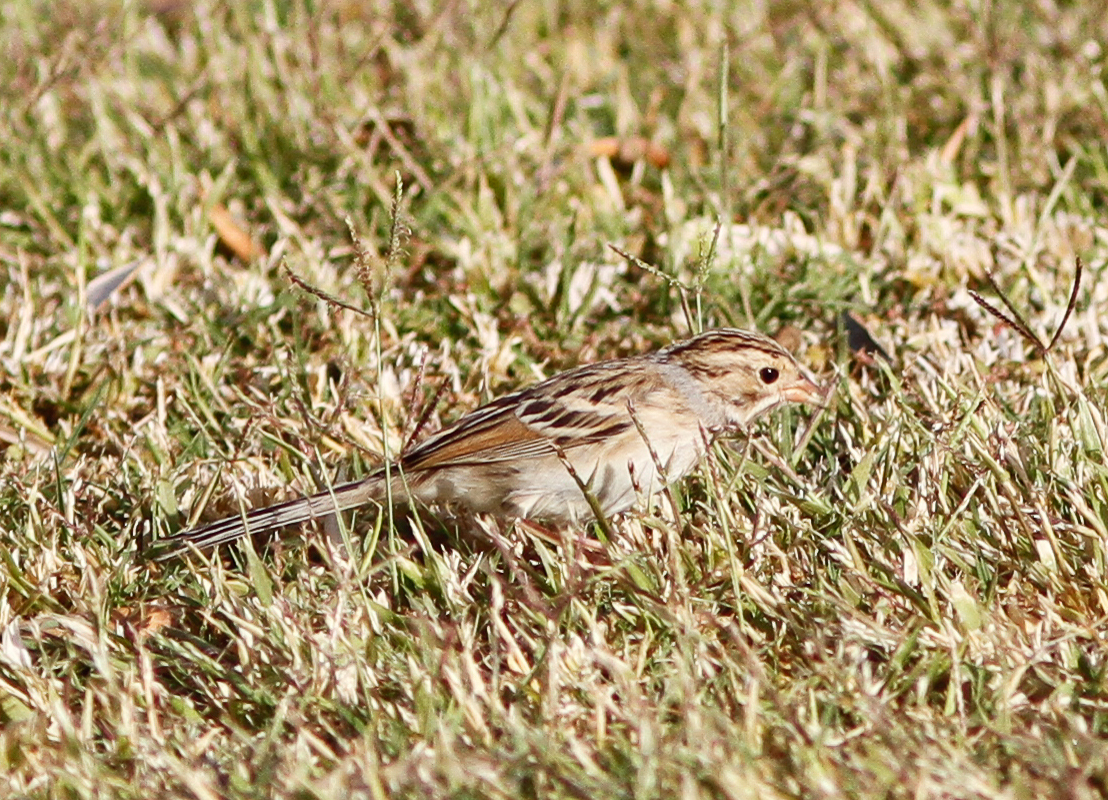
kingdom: Animalia
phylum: Chordata
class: Aves
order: Passeriformes
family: Passerellidae
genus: Spizella
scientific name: Spizella pallida
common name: Clay-colored sparrow
